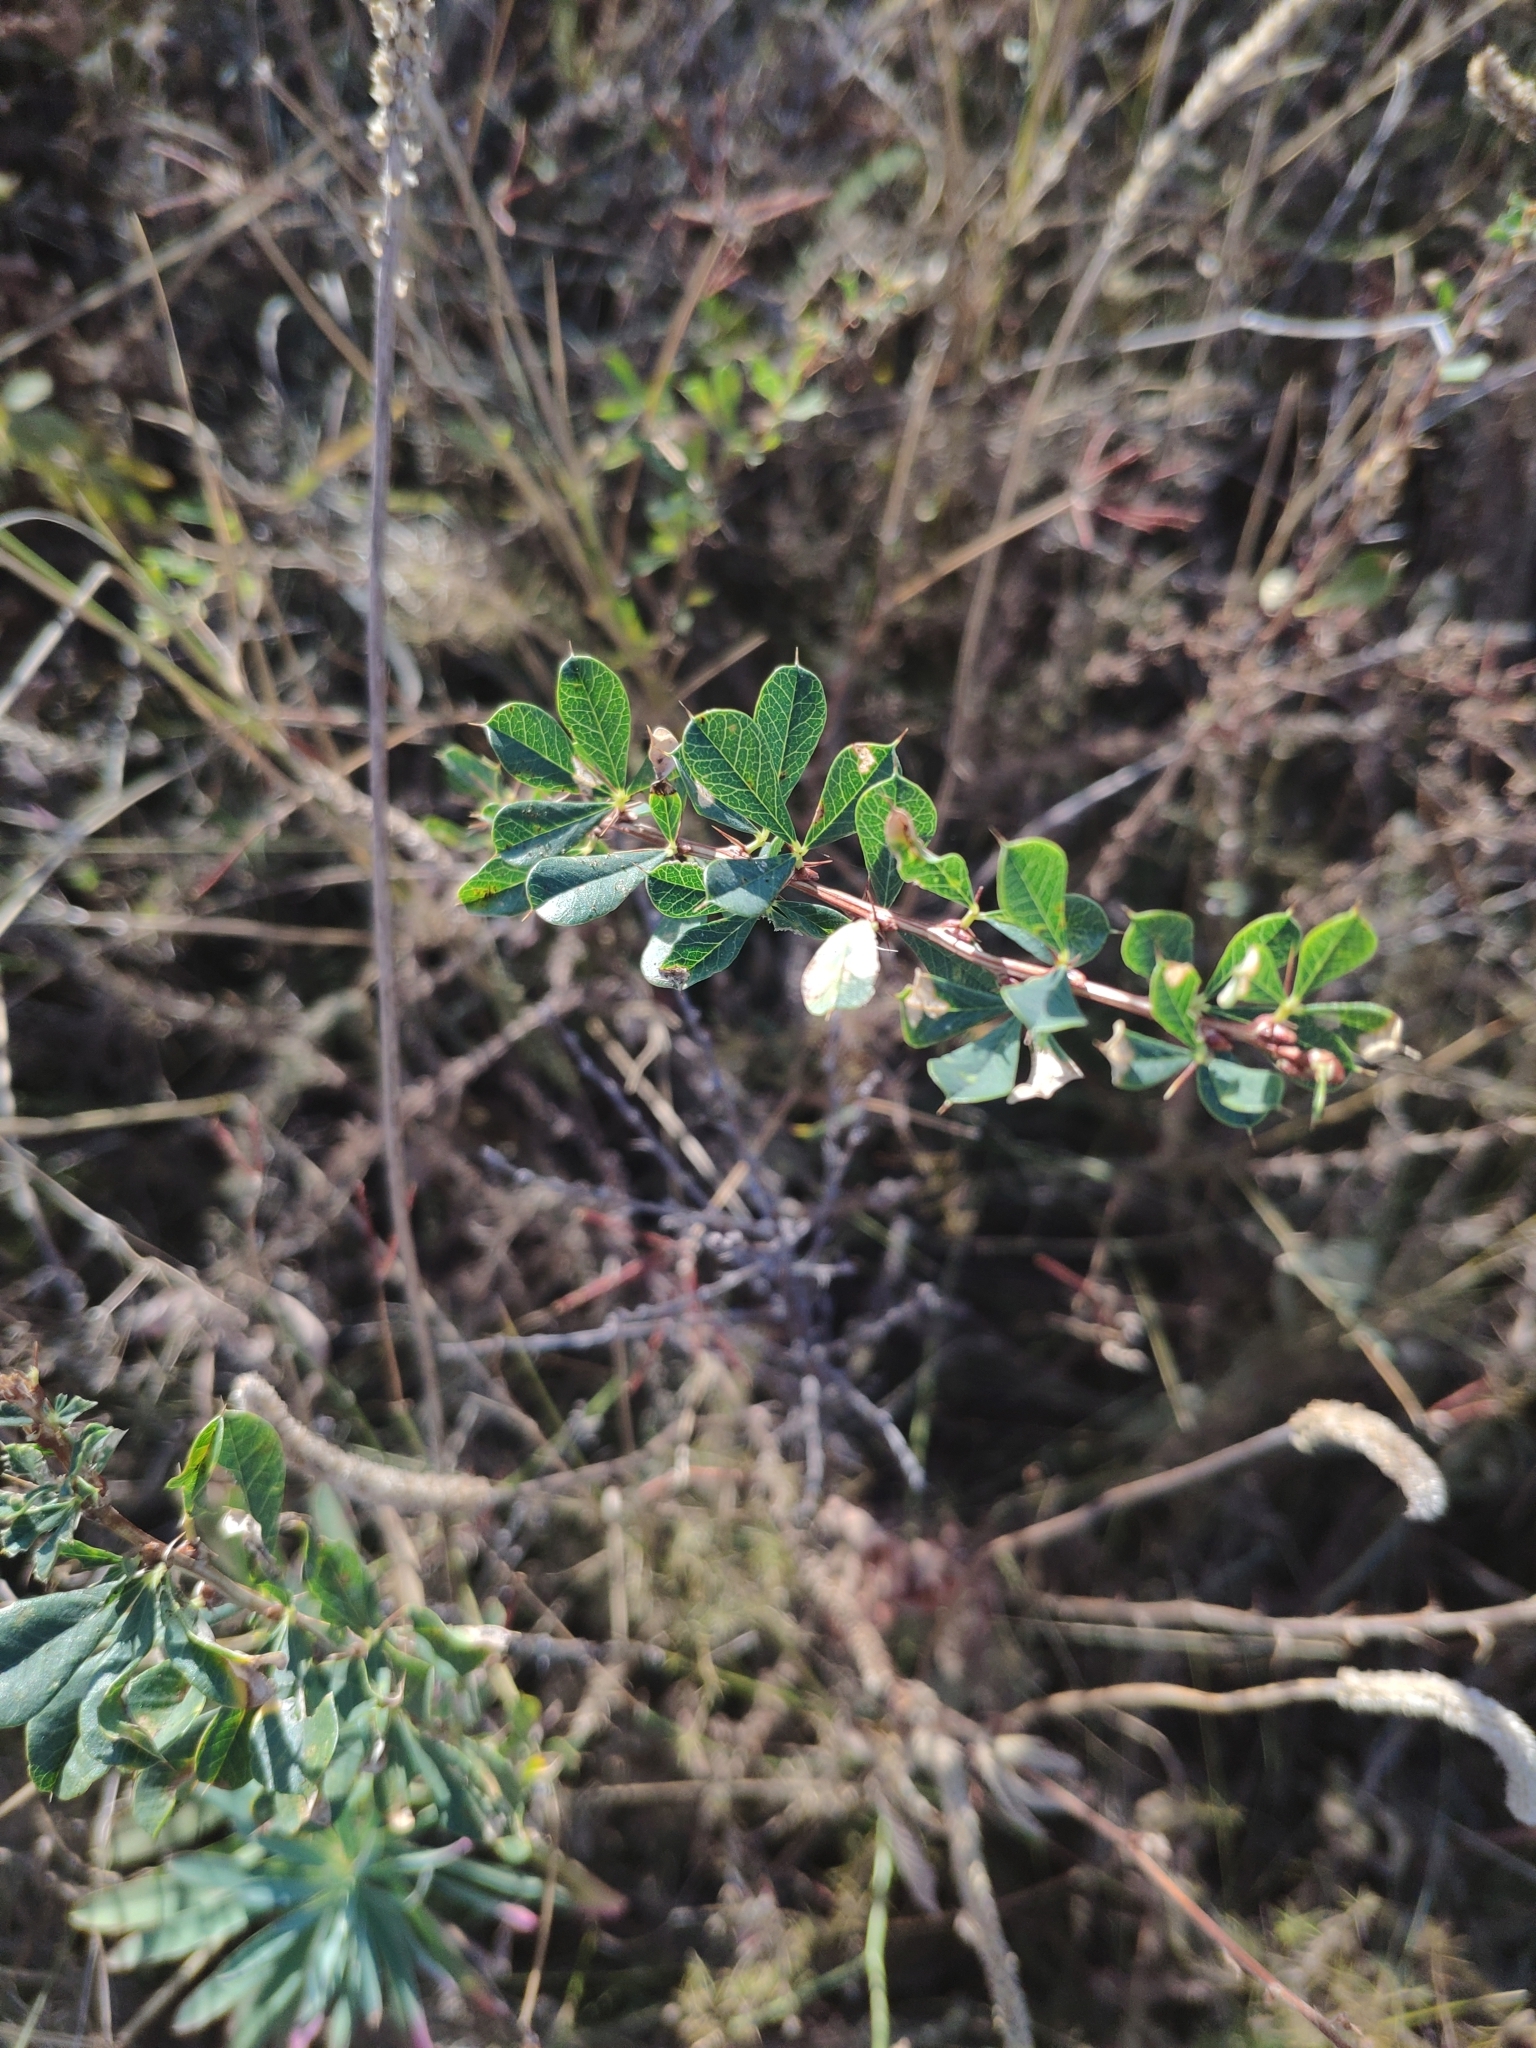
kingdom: Plantae
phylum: Tracheophyta
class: Magnoliopsida
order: Fabales
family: Fabaceae
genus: Caragana
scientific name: Caragana frutex
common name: Russian peashrub
